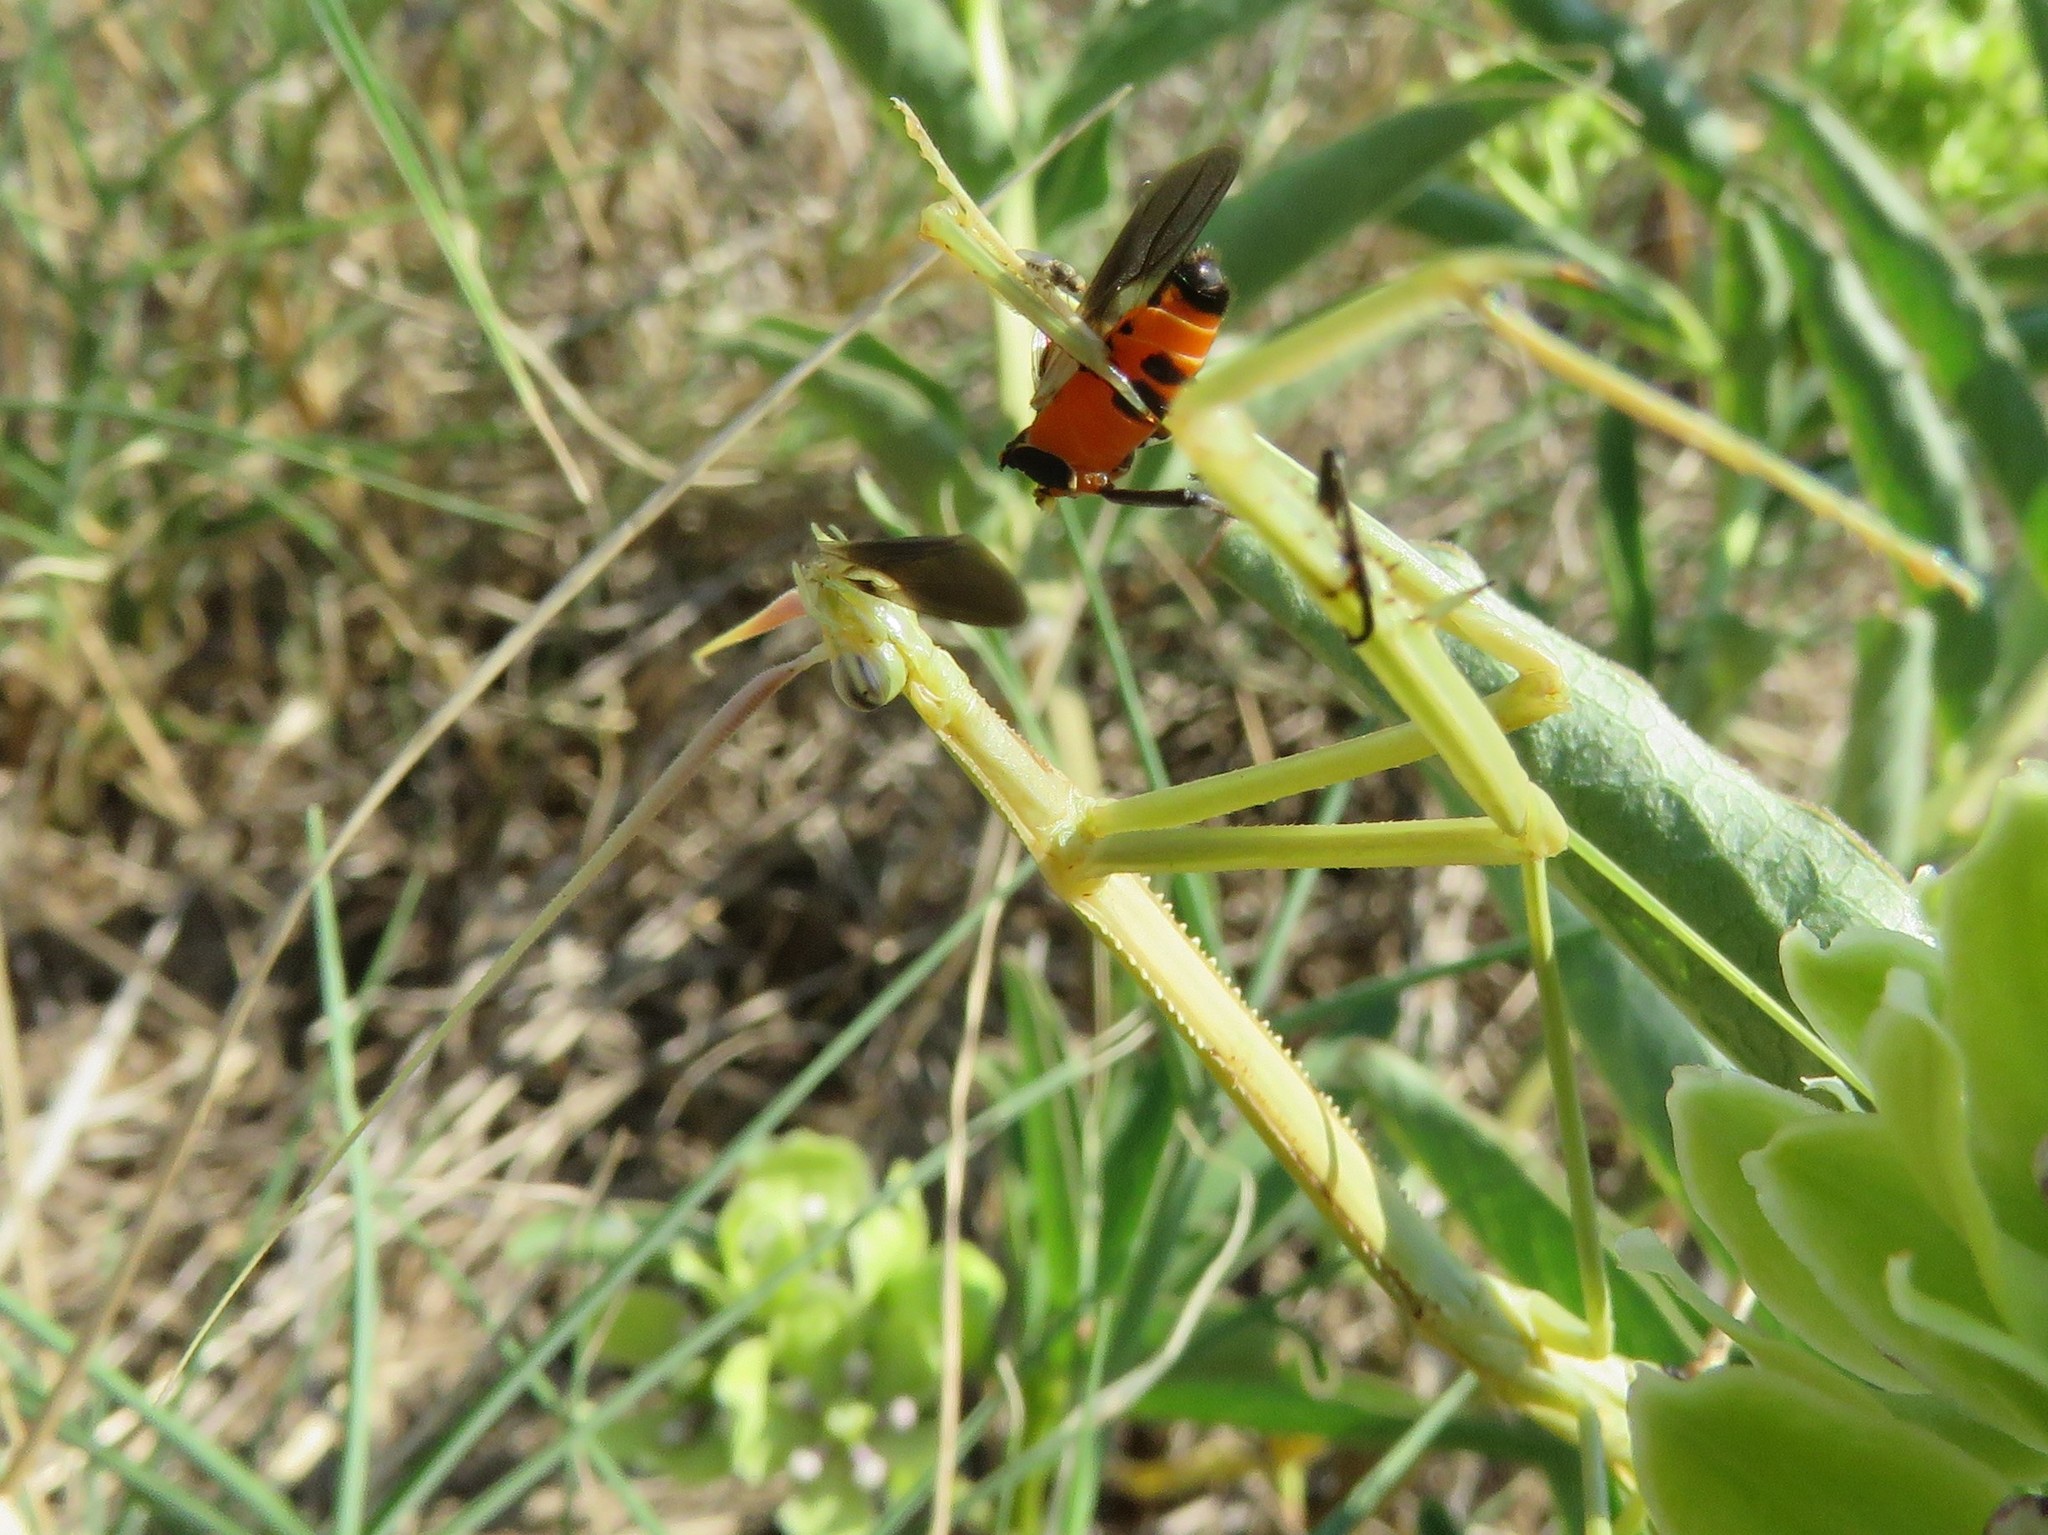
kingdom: Animalia
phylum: Arthropoda
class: Insecta
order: Hemiptera
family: Lygaeidae
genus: Oncopeltus
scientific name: Oncopeltus fasciatus
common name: Large milkweed bug
